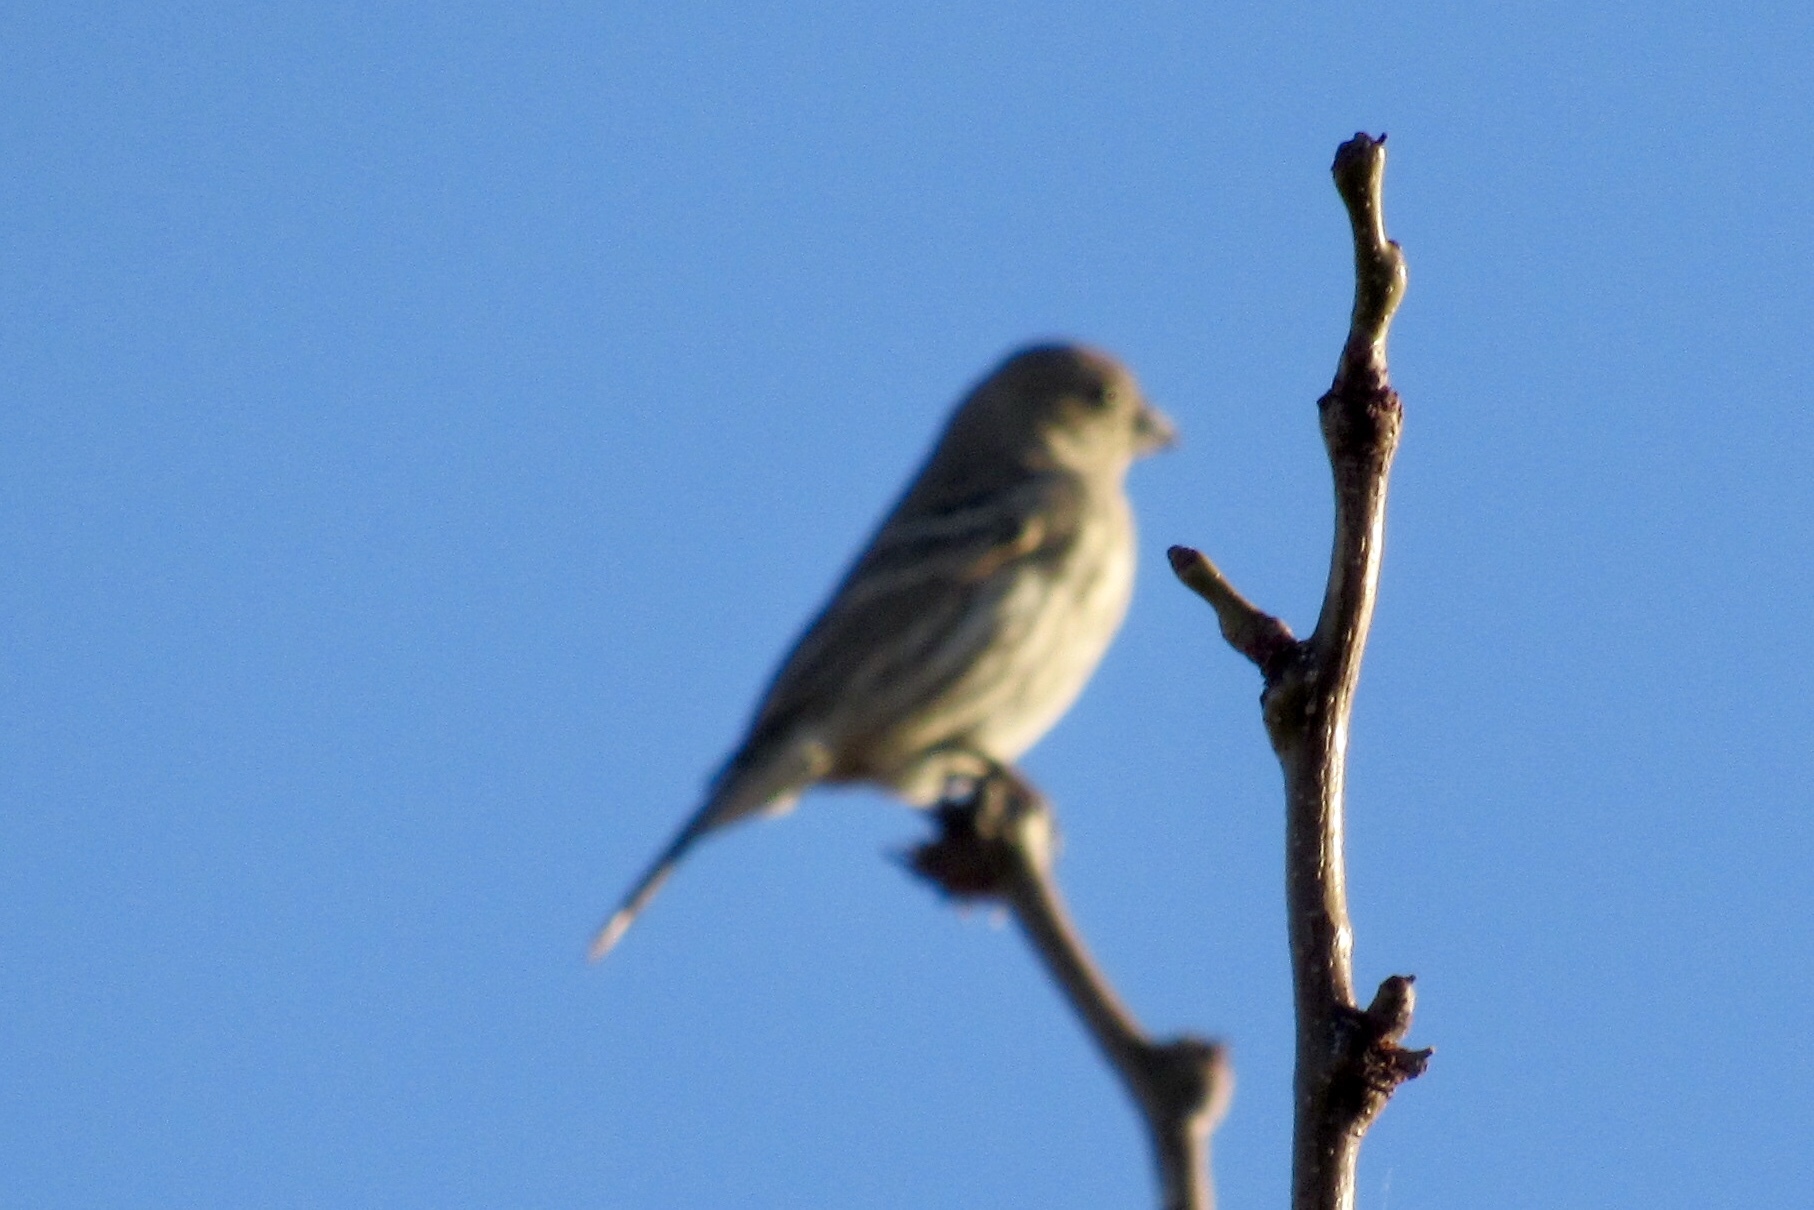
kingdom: Animalia
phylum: Chordata
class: Aves
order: Passeriformes
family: Fringillidae
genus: Haemorhous
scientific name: Haemorhous mexicanus
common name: House finch
